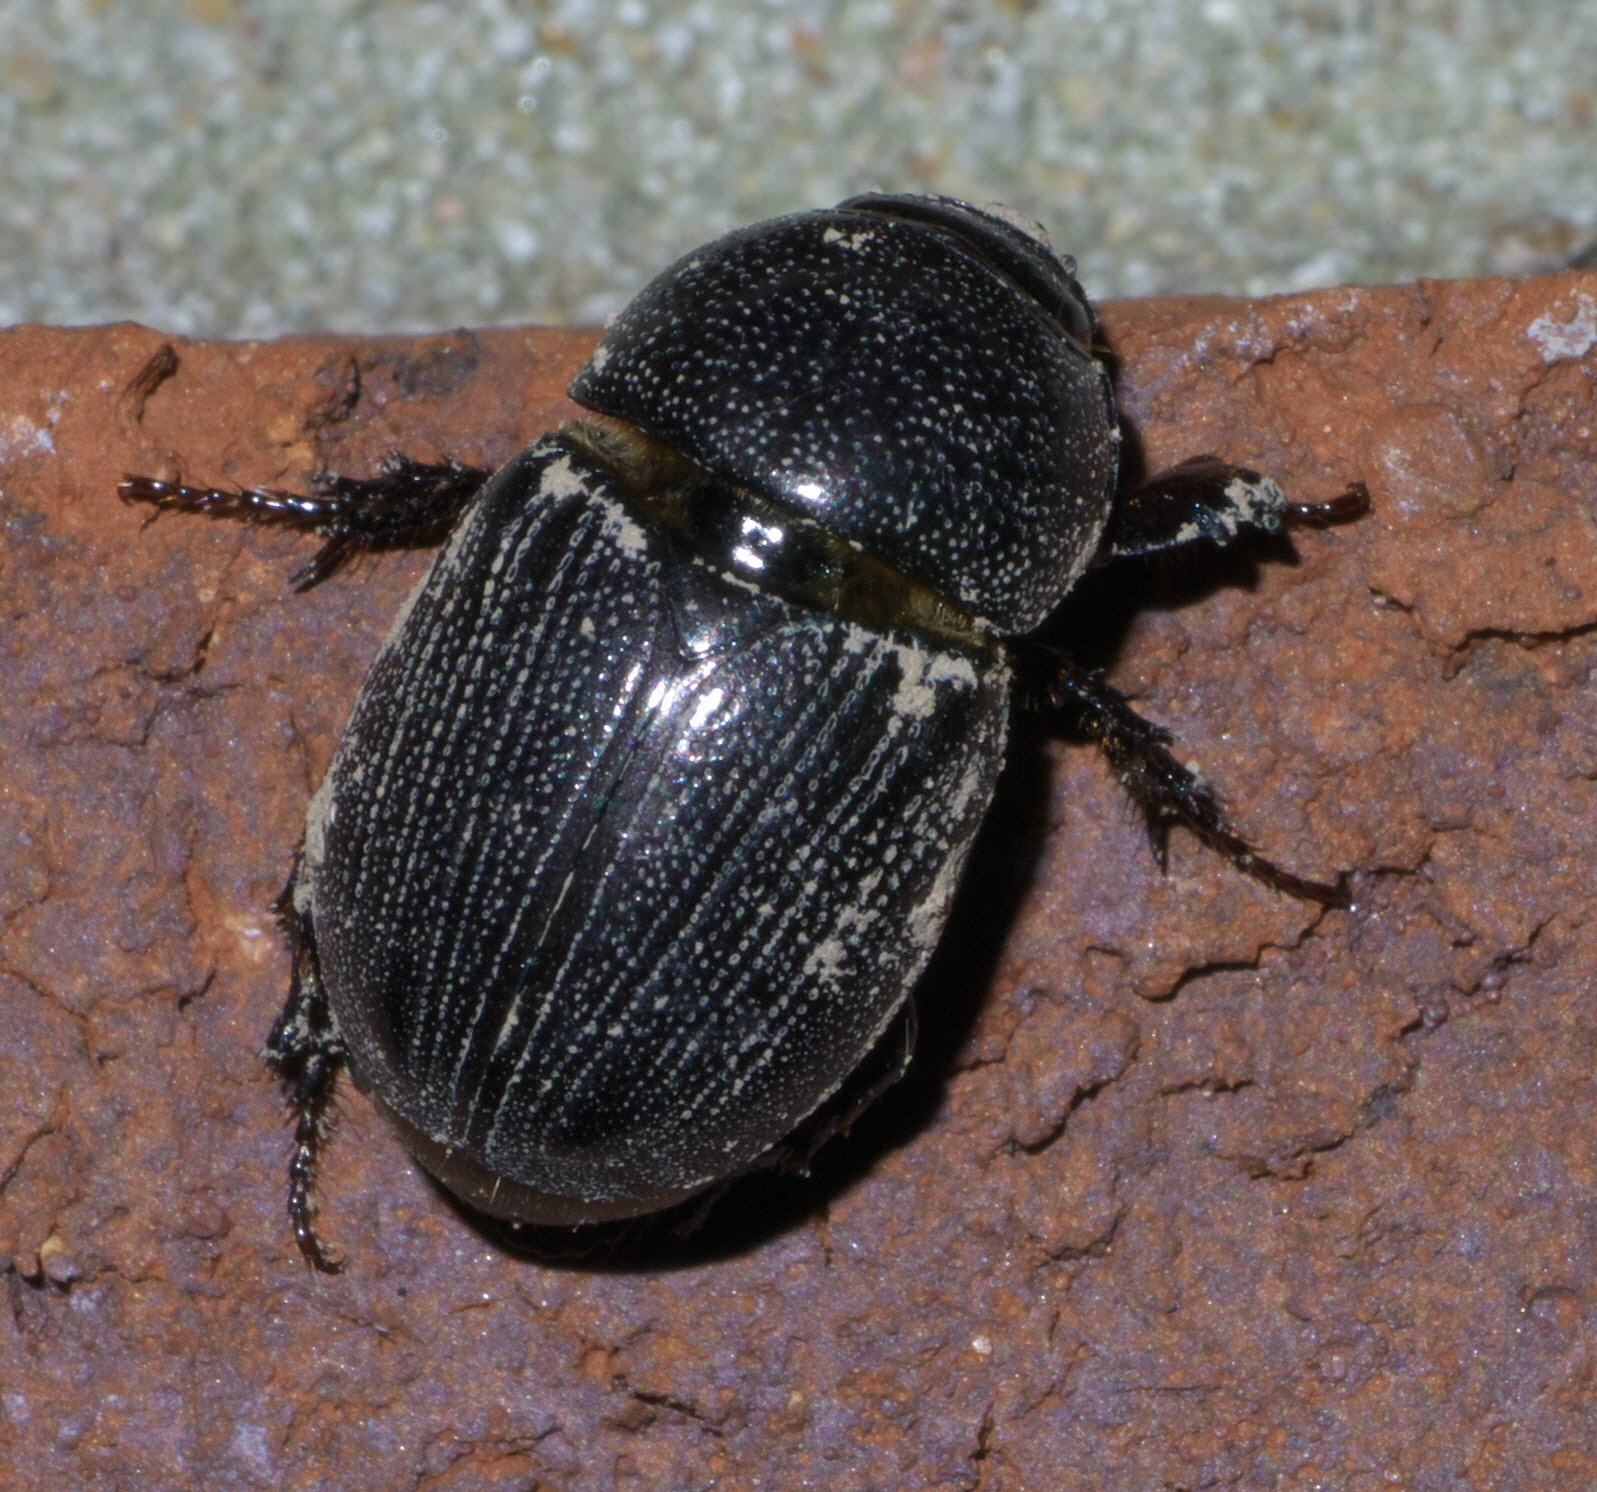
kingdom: Animalia
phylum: Arthropoda
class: Insecta
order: Coleoptera
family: Scarabaeidae
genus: Euetheola
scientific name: Euetheola humilis
